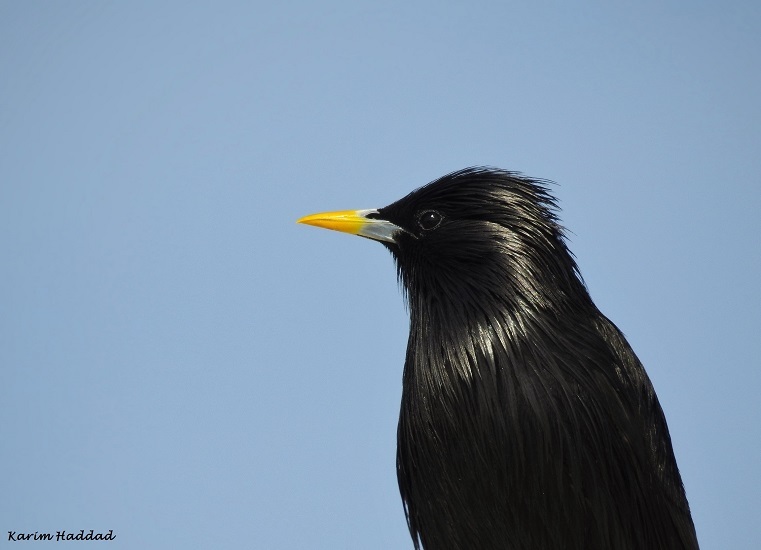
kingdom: Animalia
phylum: Chordata
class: Aves
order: Passeriformes
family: Sturnidae
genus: Sturnus
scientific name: Sturnus unicolor
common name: Spotless starling
